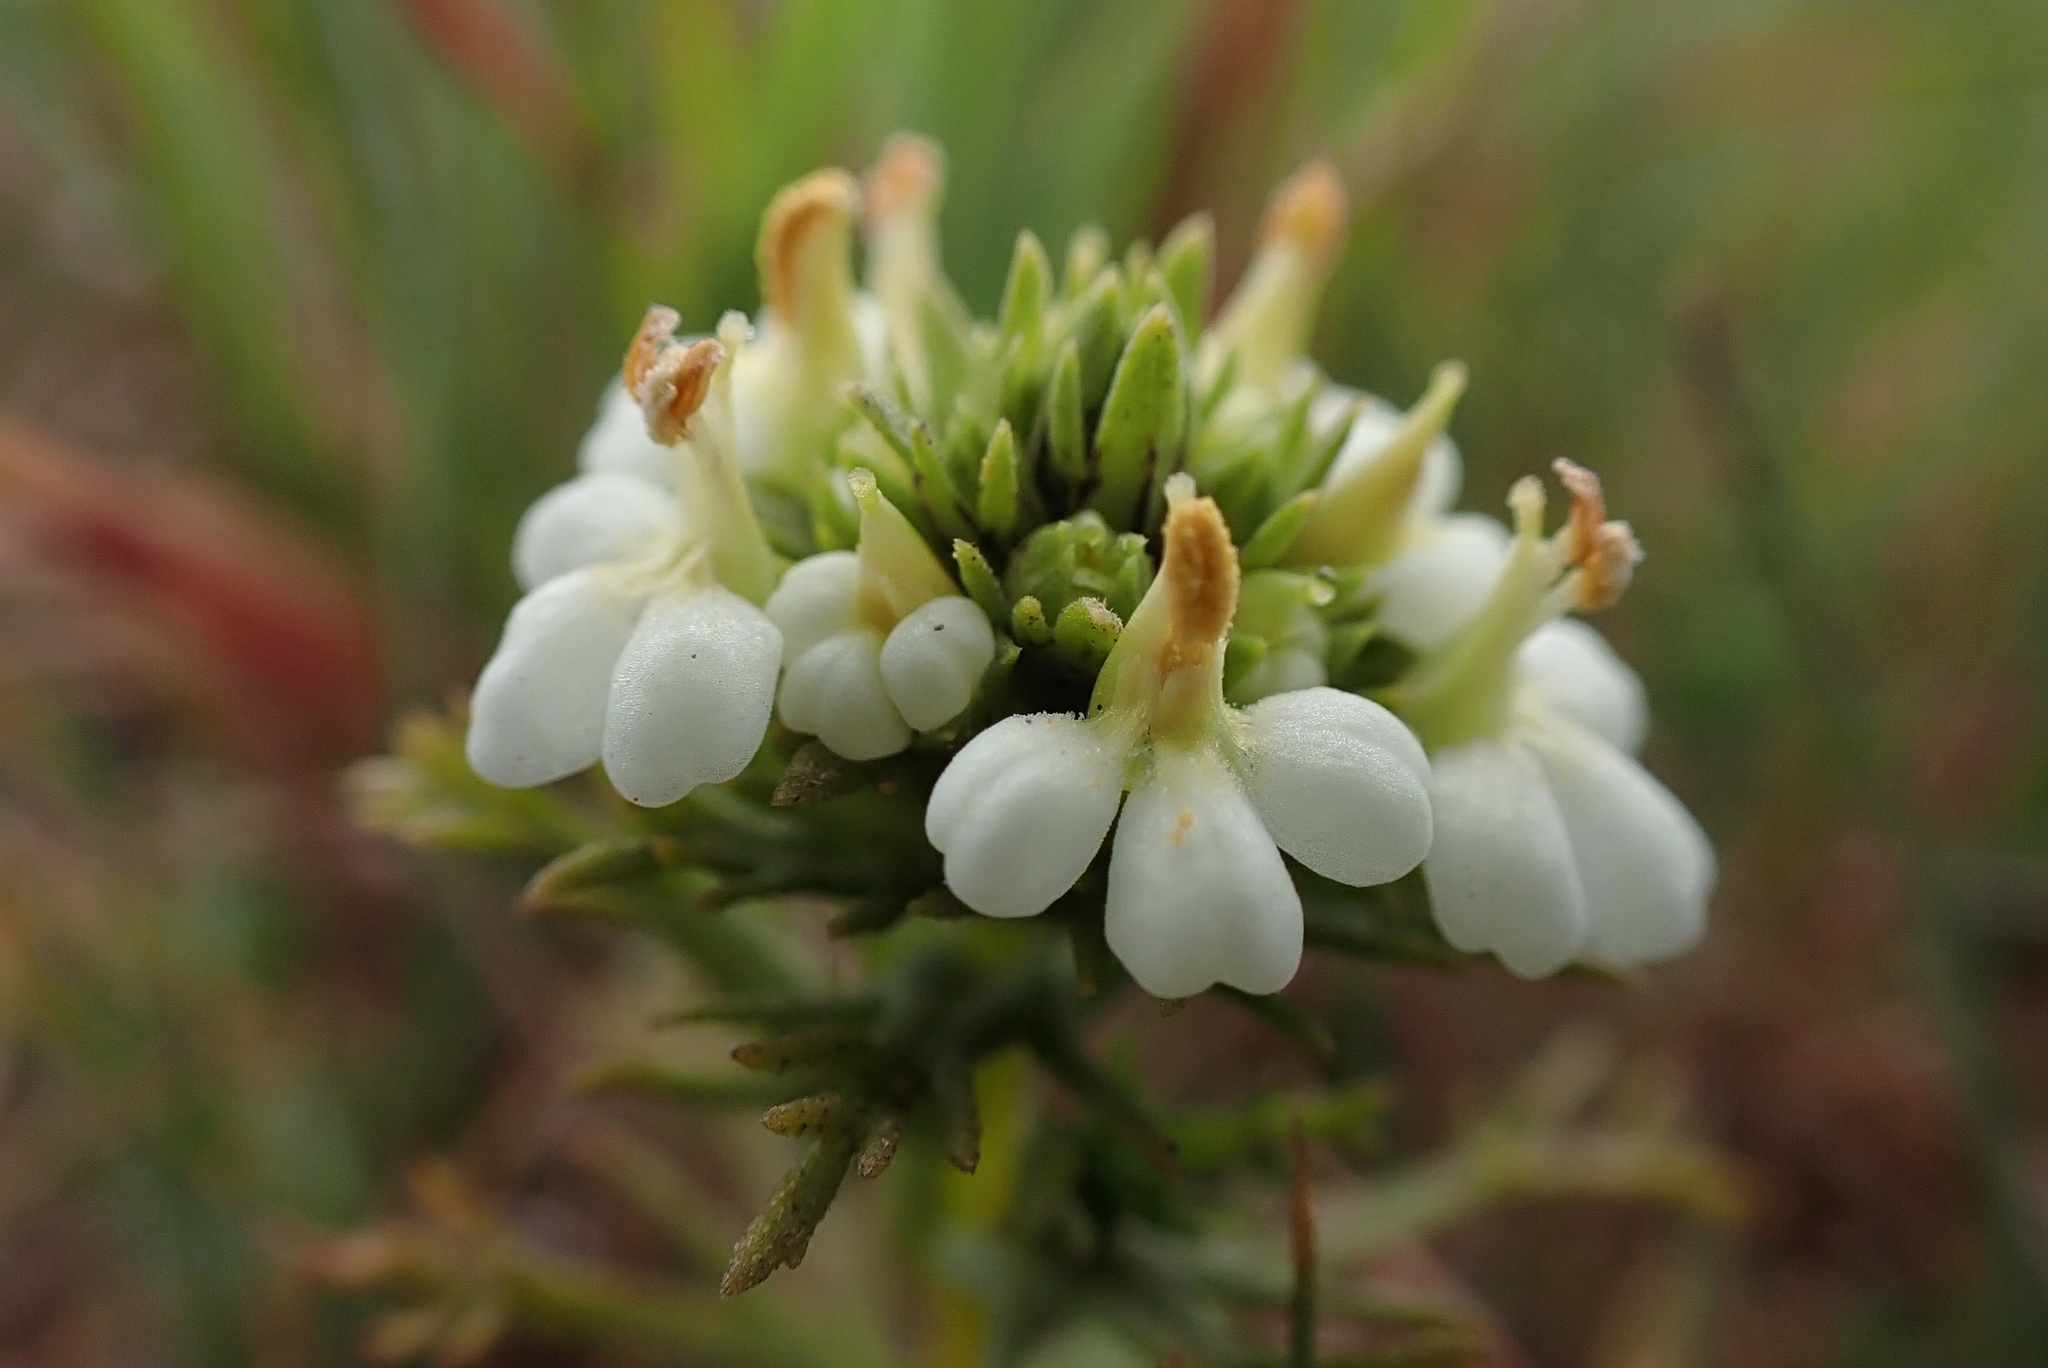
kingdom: Plantae
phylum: Tracheophyta
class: Magnoliopsida
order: Lamiales
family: Orobanchaceae
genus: Triphysaria
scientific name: Triphysaria floribunda
